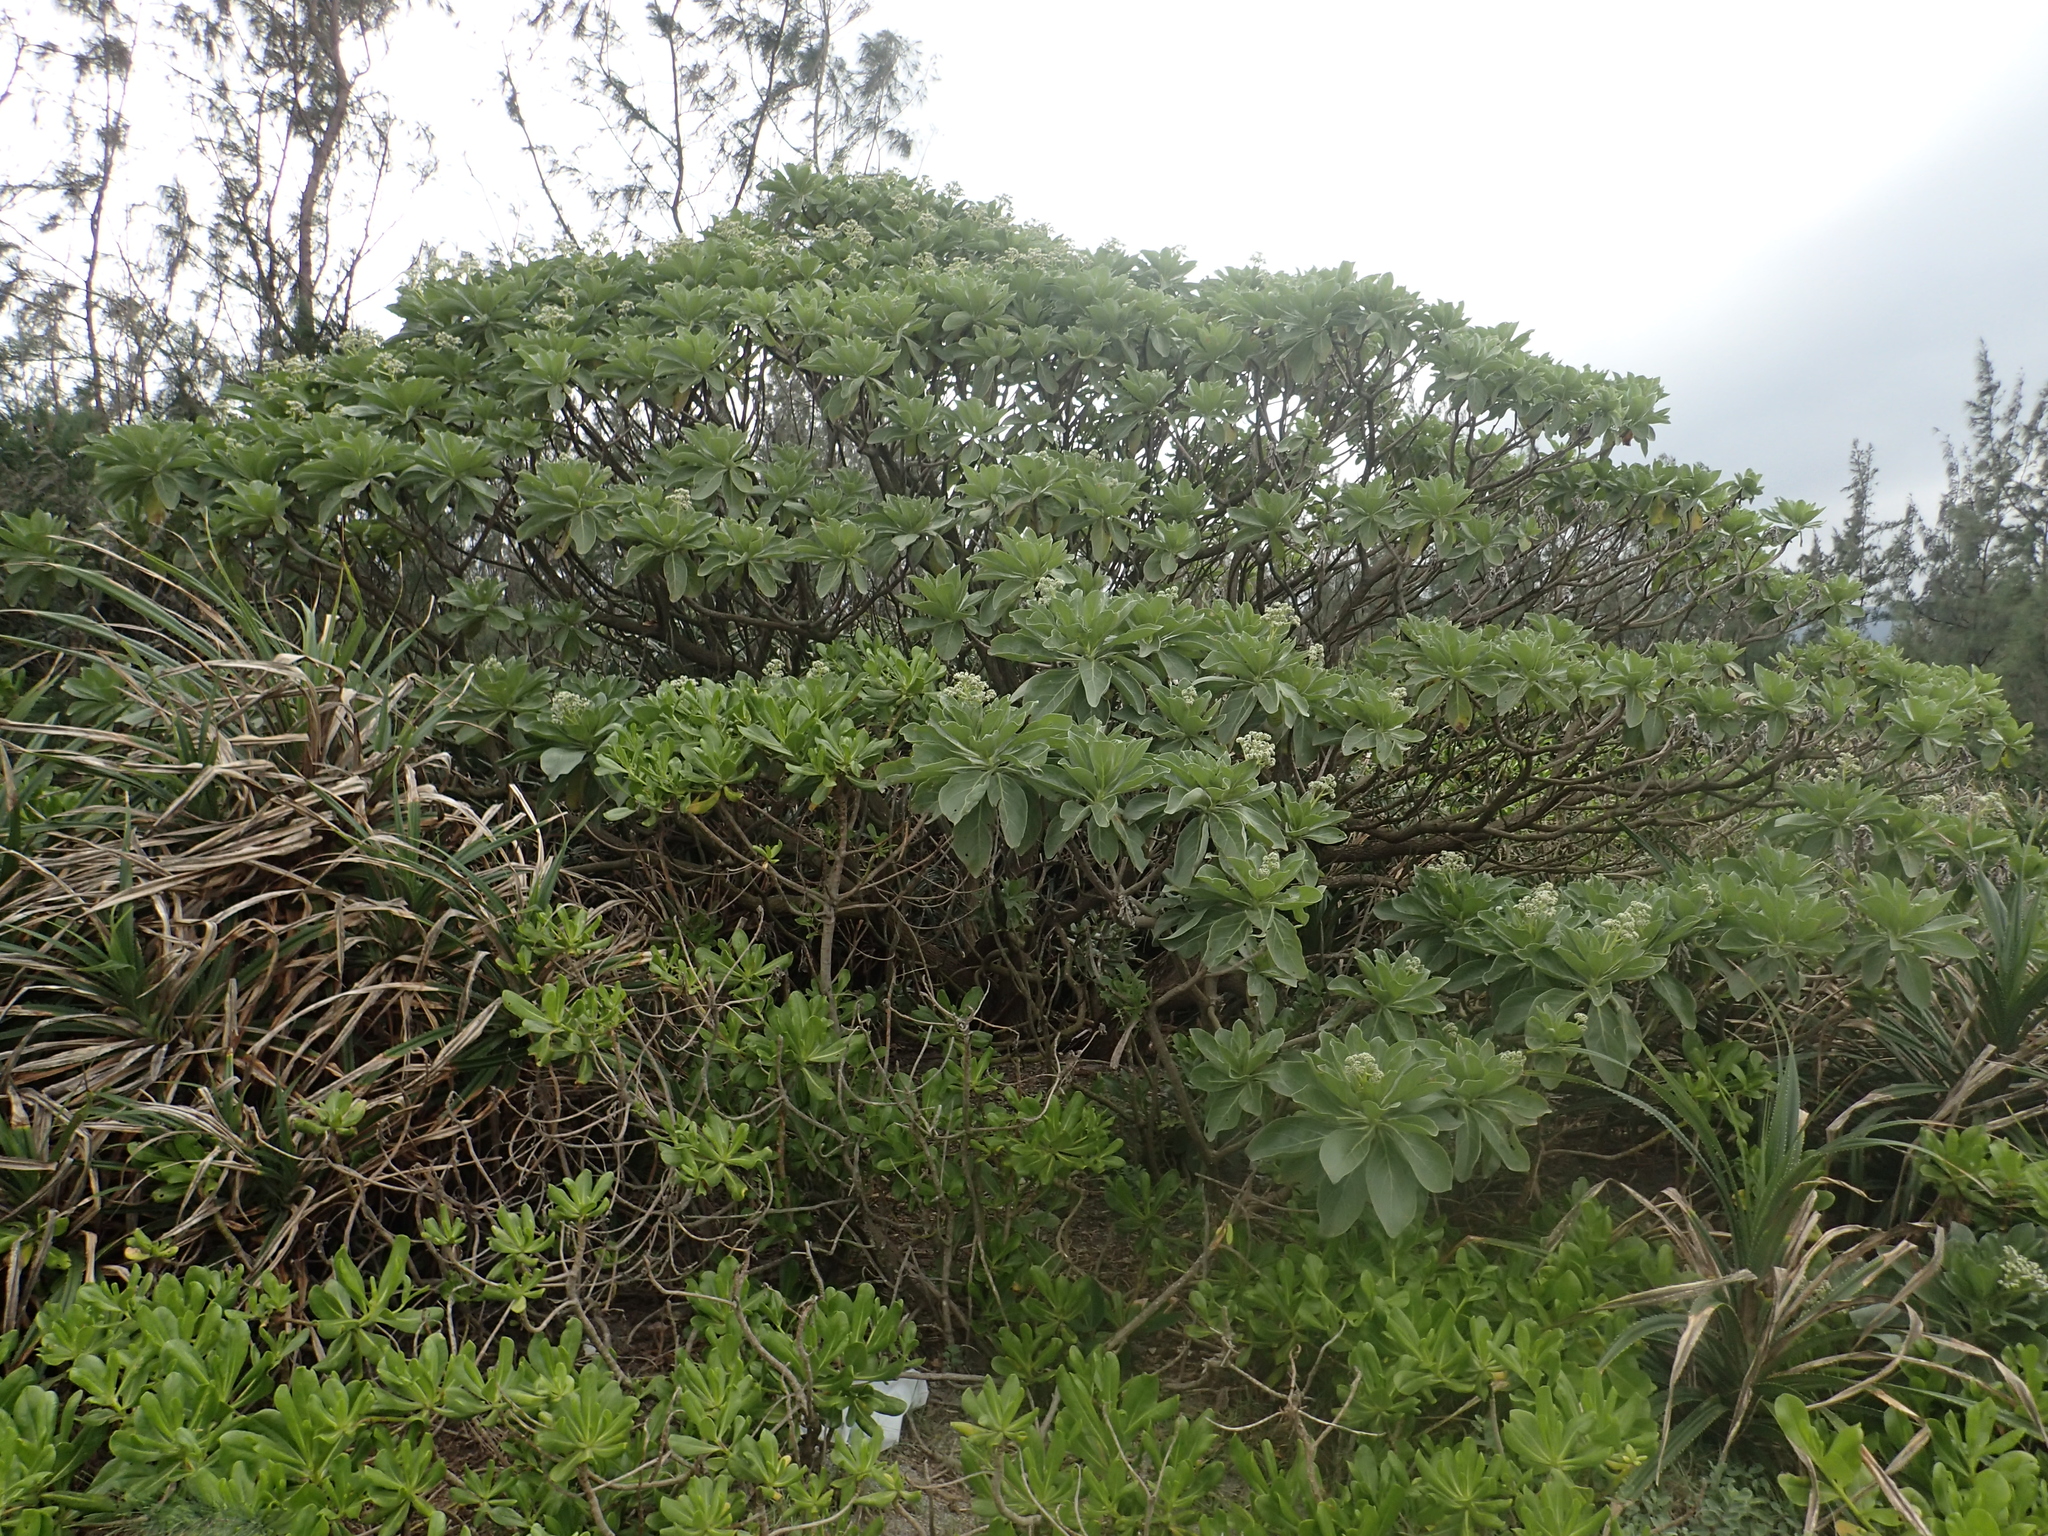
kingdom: Plantae
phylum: Tracheophyta
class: Magnoliopsida
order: Boraginales
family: Heliotropiaceae
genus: Heliotropium
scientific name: Heliotropium velutinum
